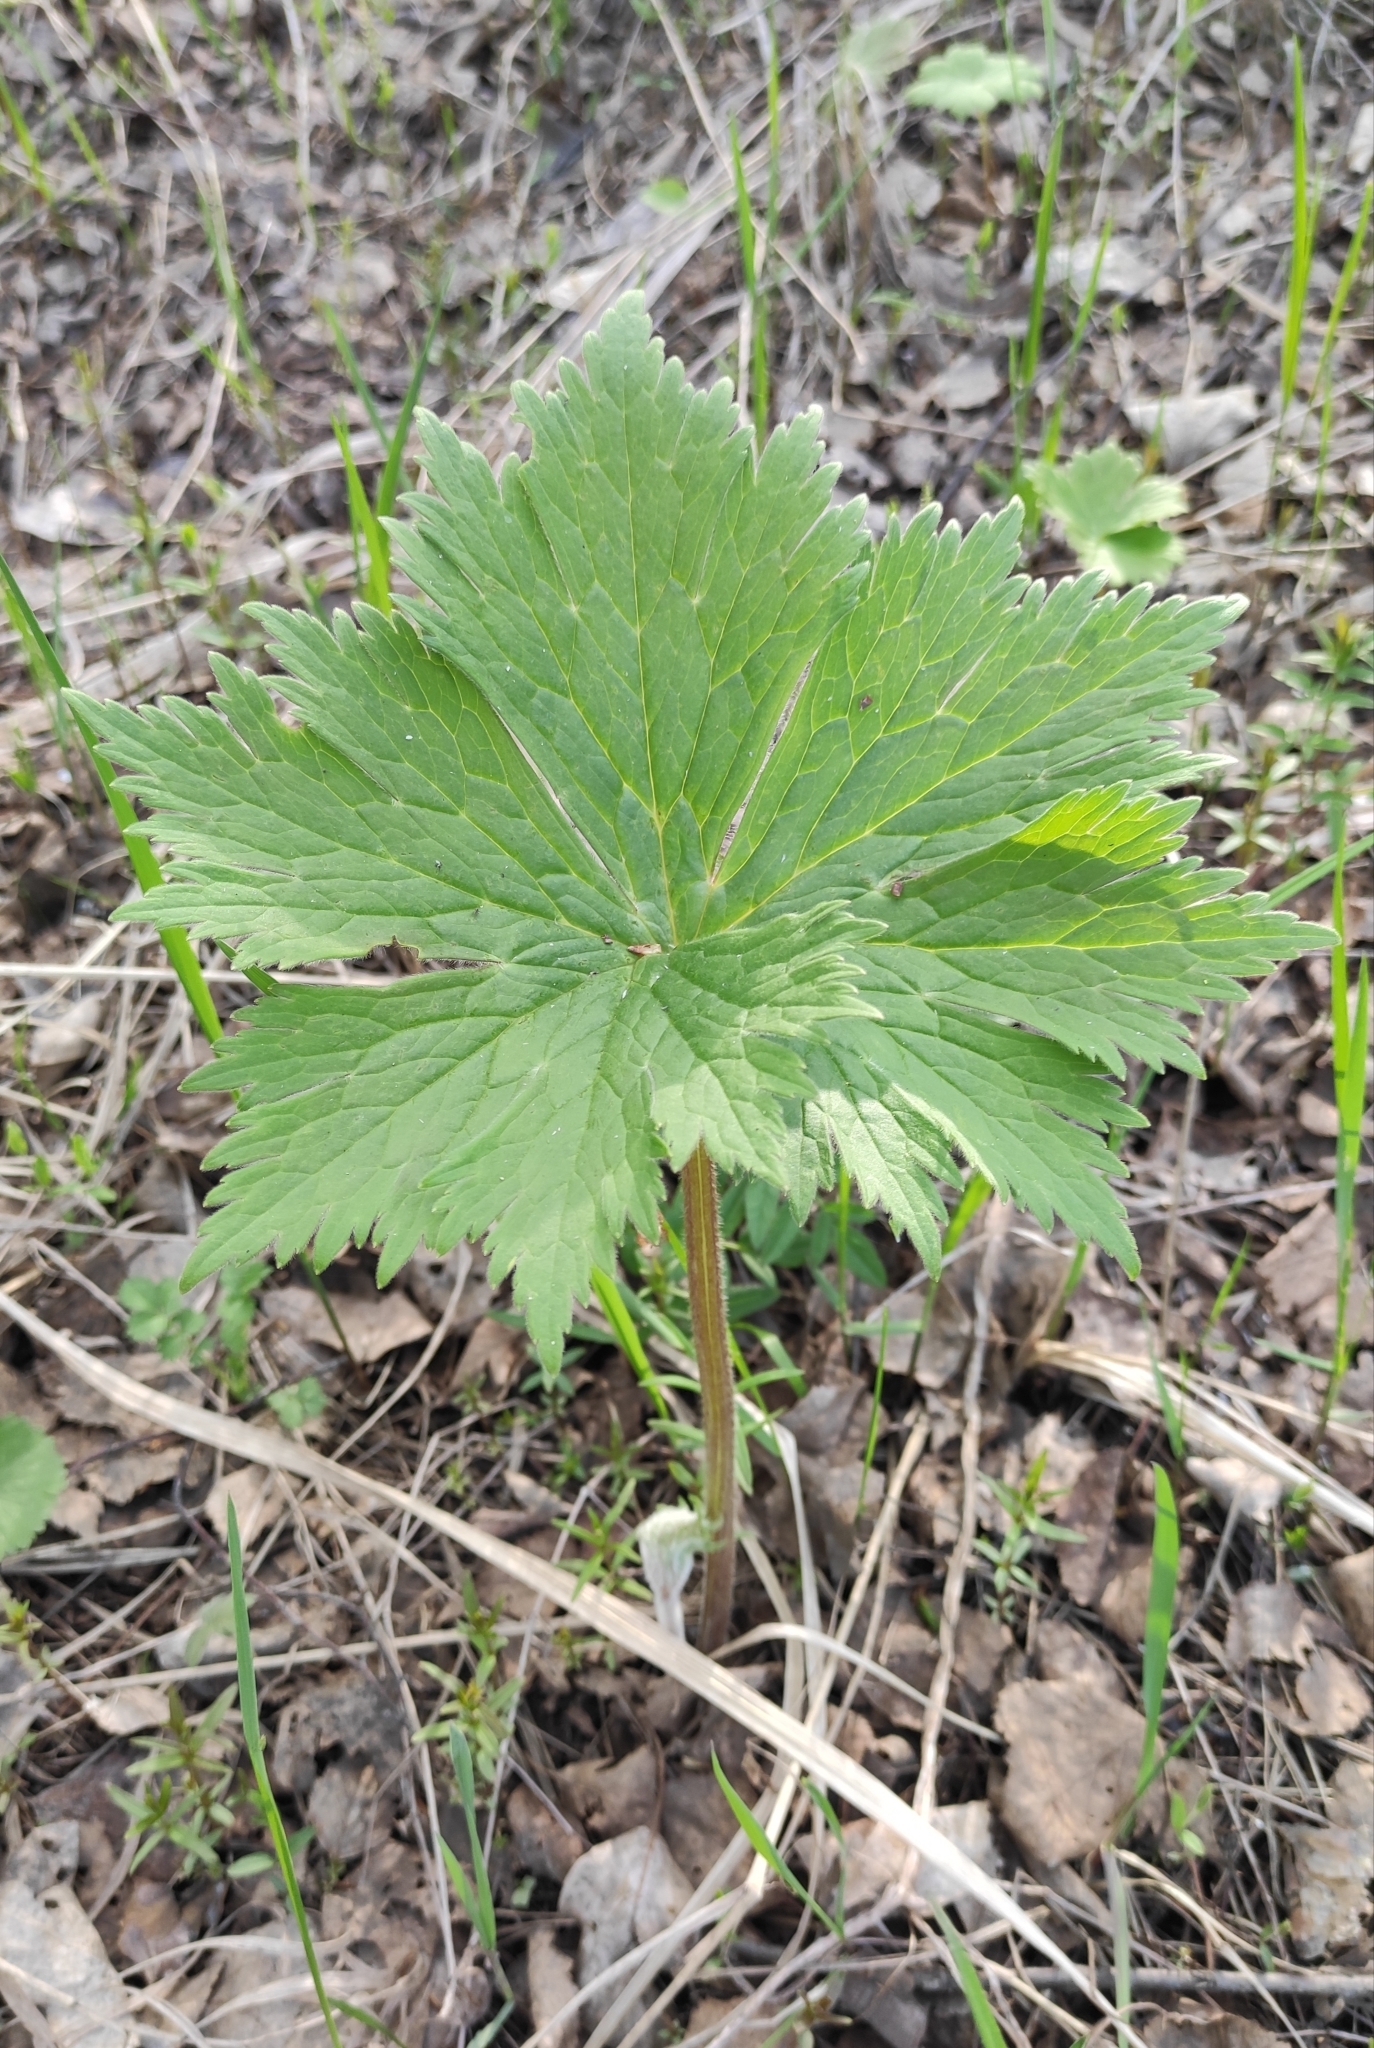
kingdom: Plantae
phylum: Tracheophyta
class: Magnoliopsida
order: Ranunculales
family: Ranunculaceae
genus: Aconitum
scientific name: Aconitum septentrionale
